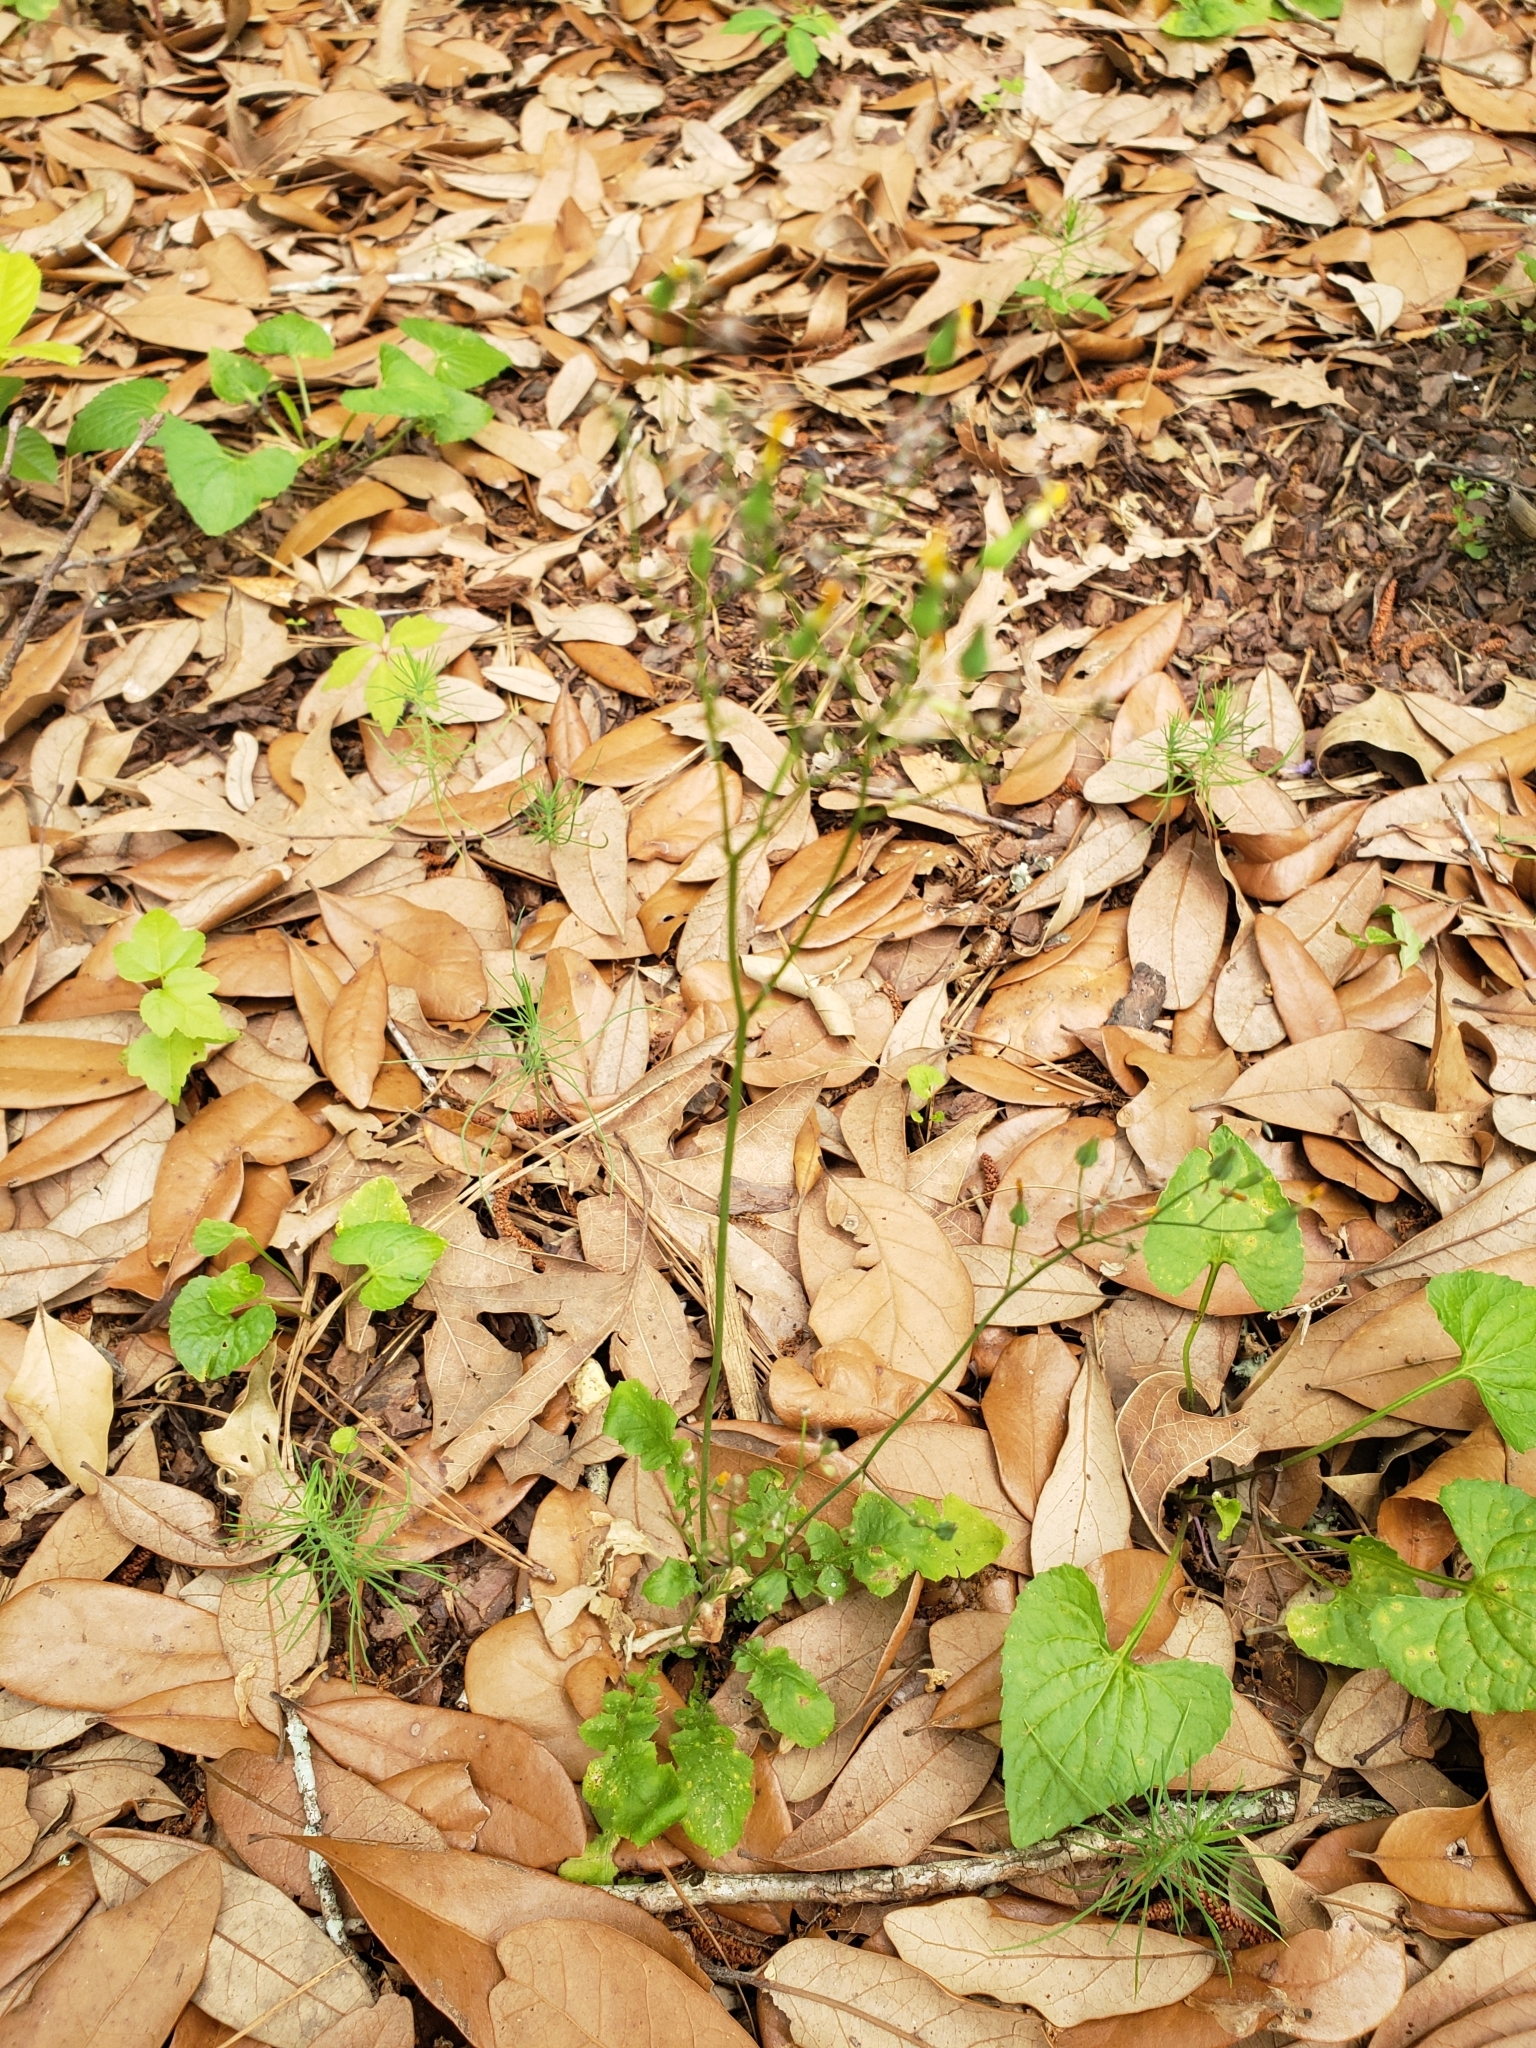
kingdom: Plantae
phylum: Tracheophyta
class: Magnoliopsida
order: Asterales
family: Asteraceae
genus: Youngia
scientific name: Youngia japonica
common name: Oriental false hawksbeard
